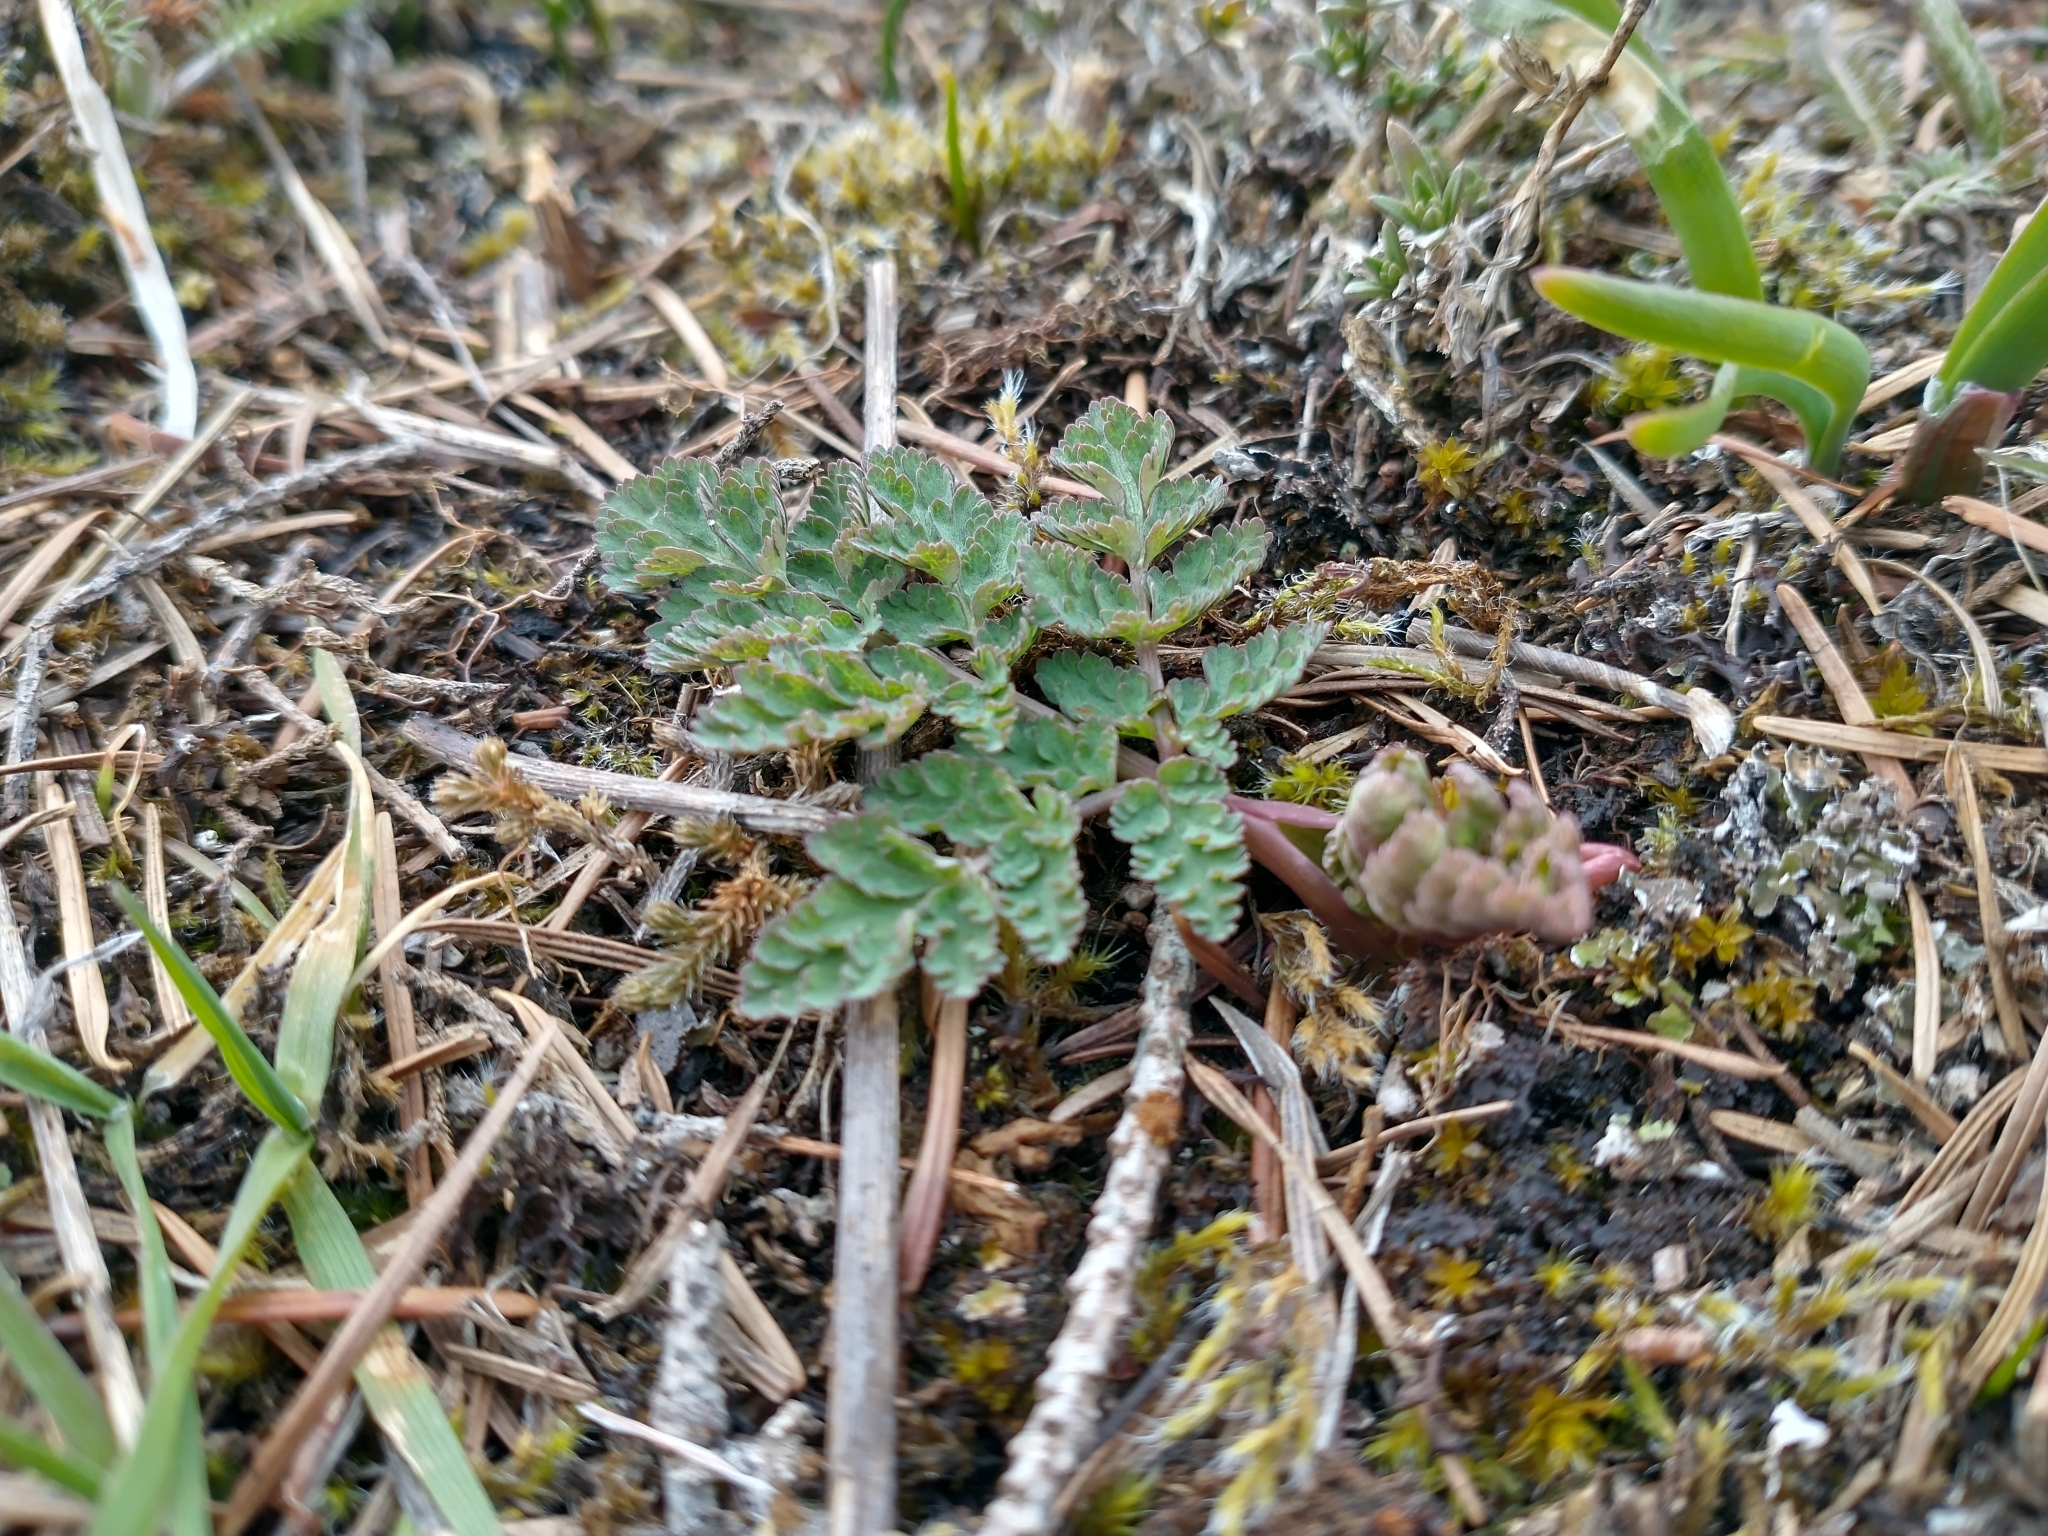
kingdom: Plantae
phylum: Tracheophyta
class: Magnoliopsida
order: Apiales
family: Apiaceae
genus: Lomatium
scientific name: Lomatium martindalei
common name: Cascade desert-parsley
